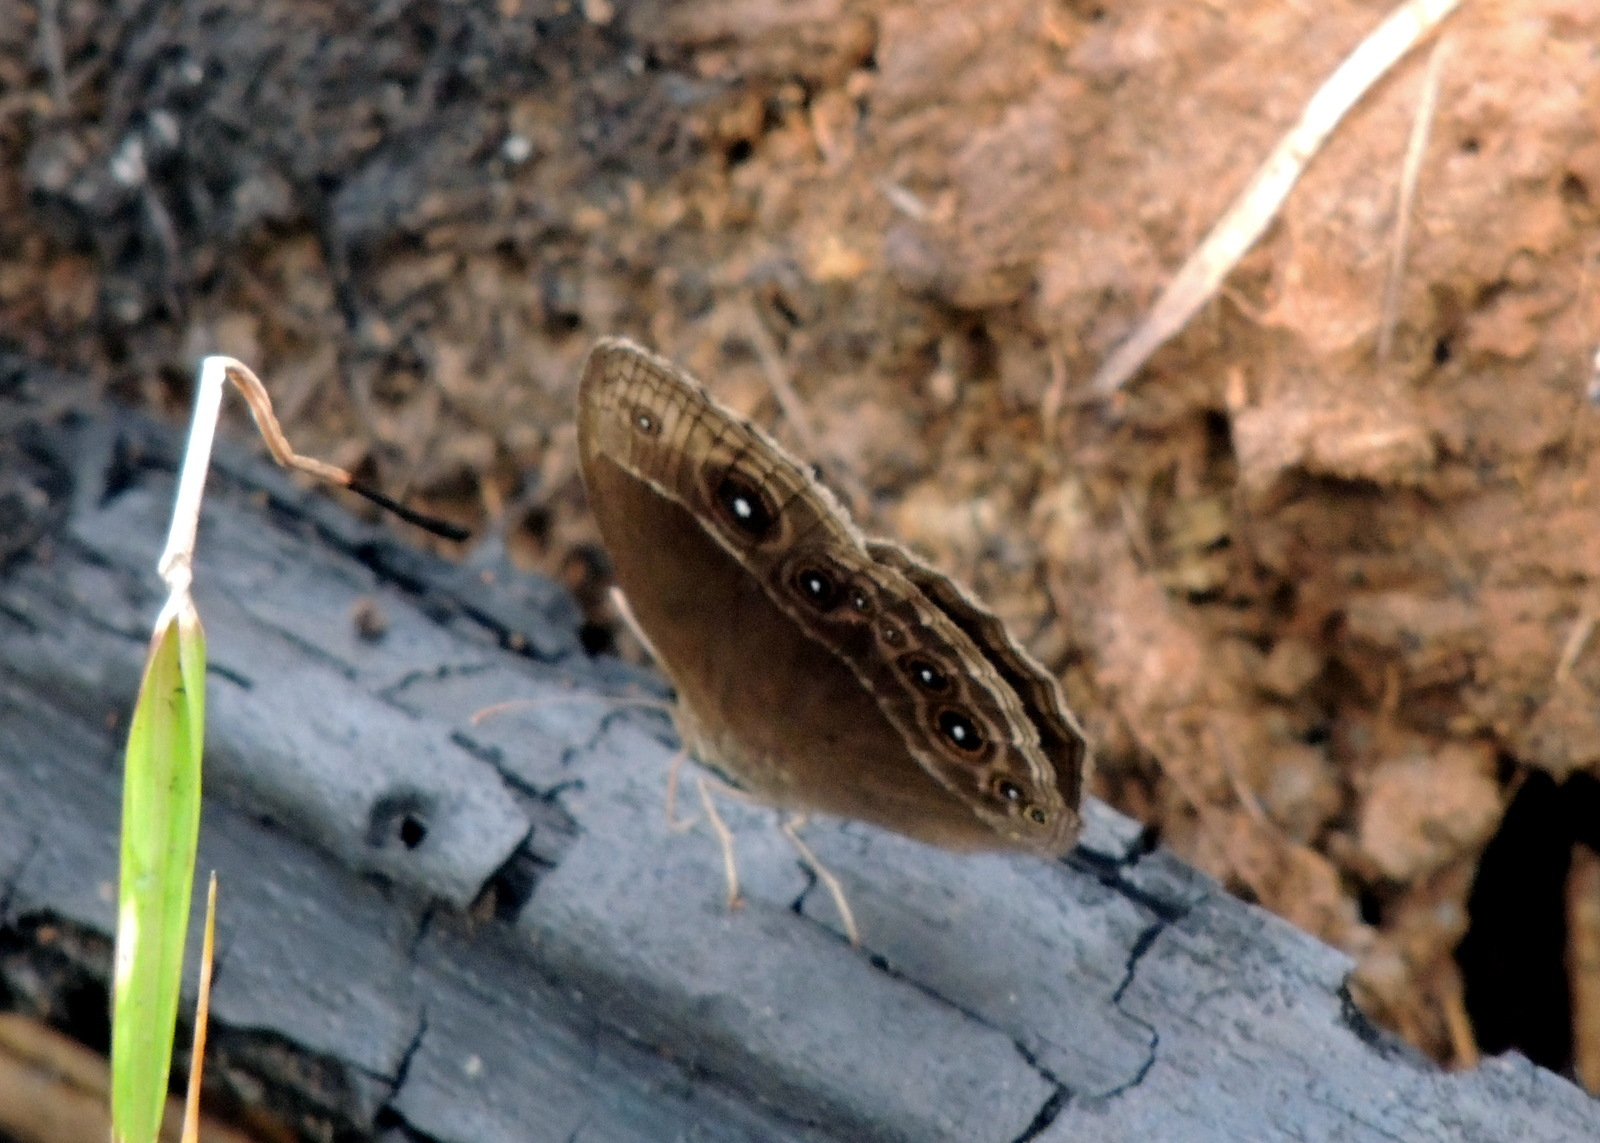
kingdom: Animalia
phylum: Arthropoda
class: Insecta
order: Lepidoptera
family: Nymphalidae
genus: Mycalesis
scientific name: Mycalesis rhacotis
